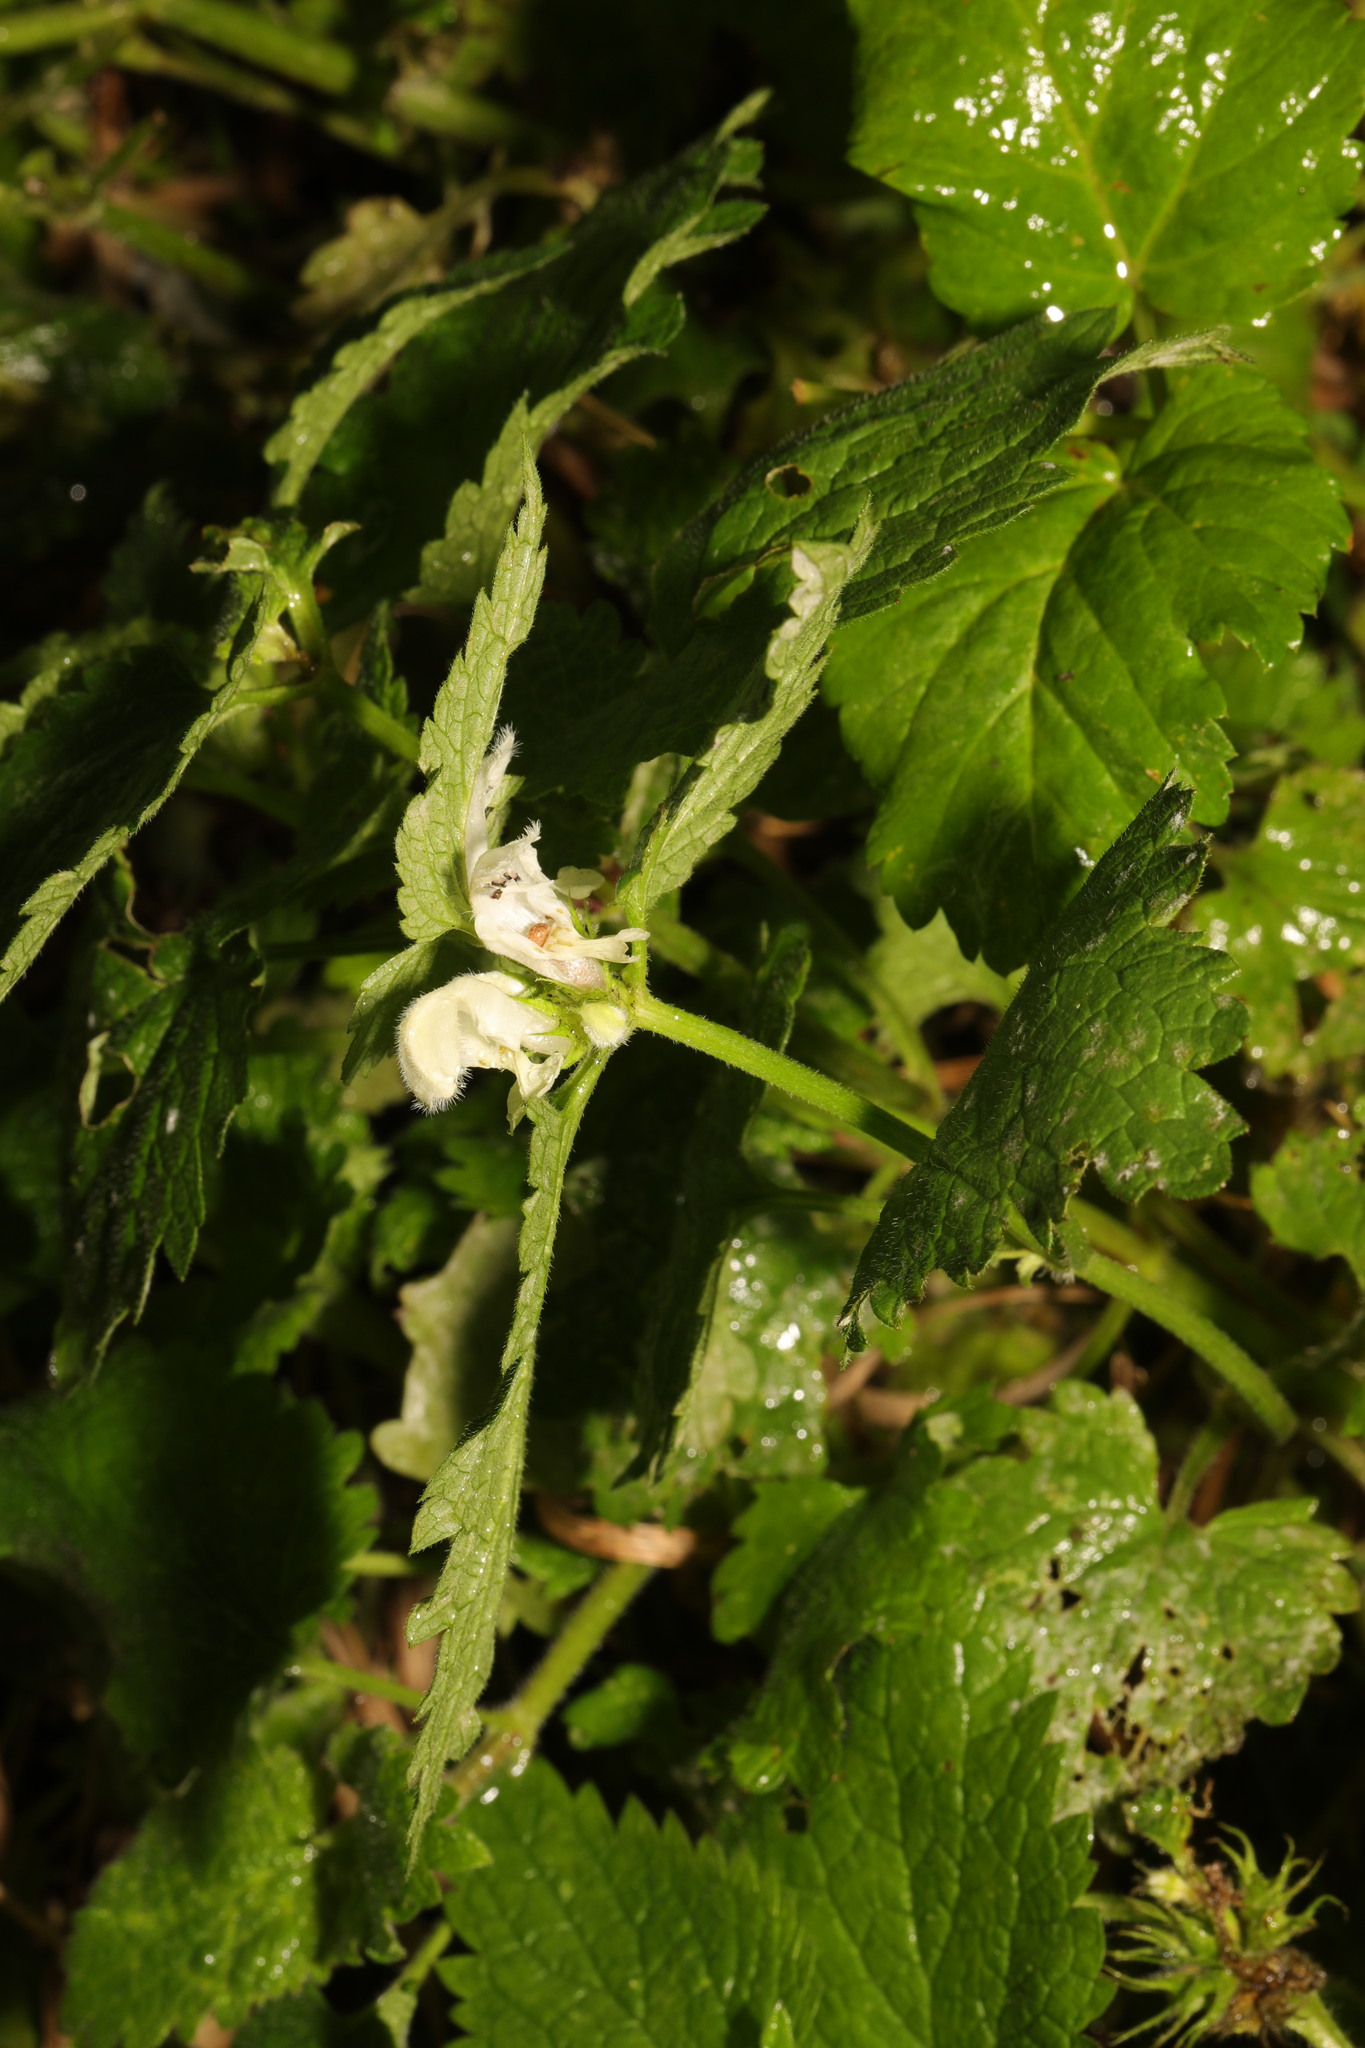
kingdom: Plantae
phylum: Tracheophyta
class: Magnoliopsida
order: Lamiales
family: Lamiaceae
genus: Lamium
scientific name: Lamium album
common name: White dead-nettle
